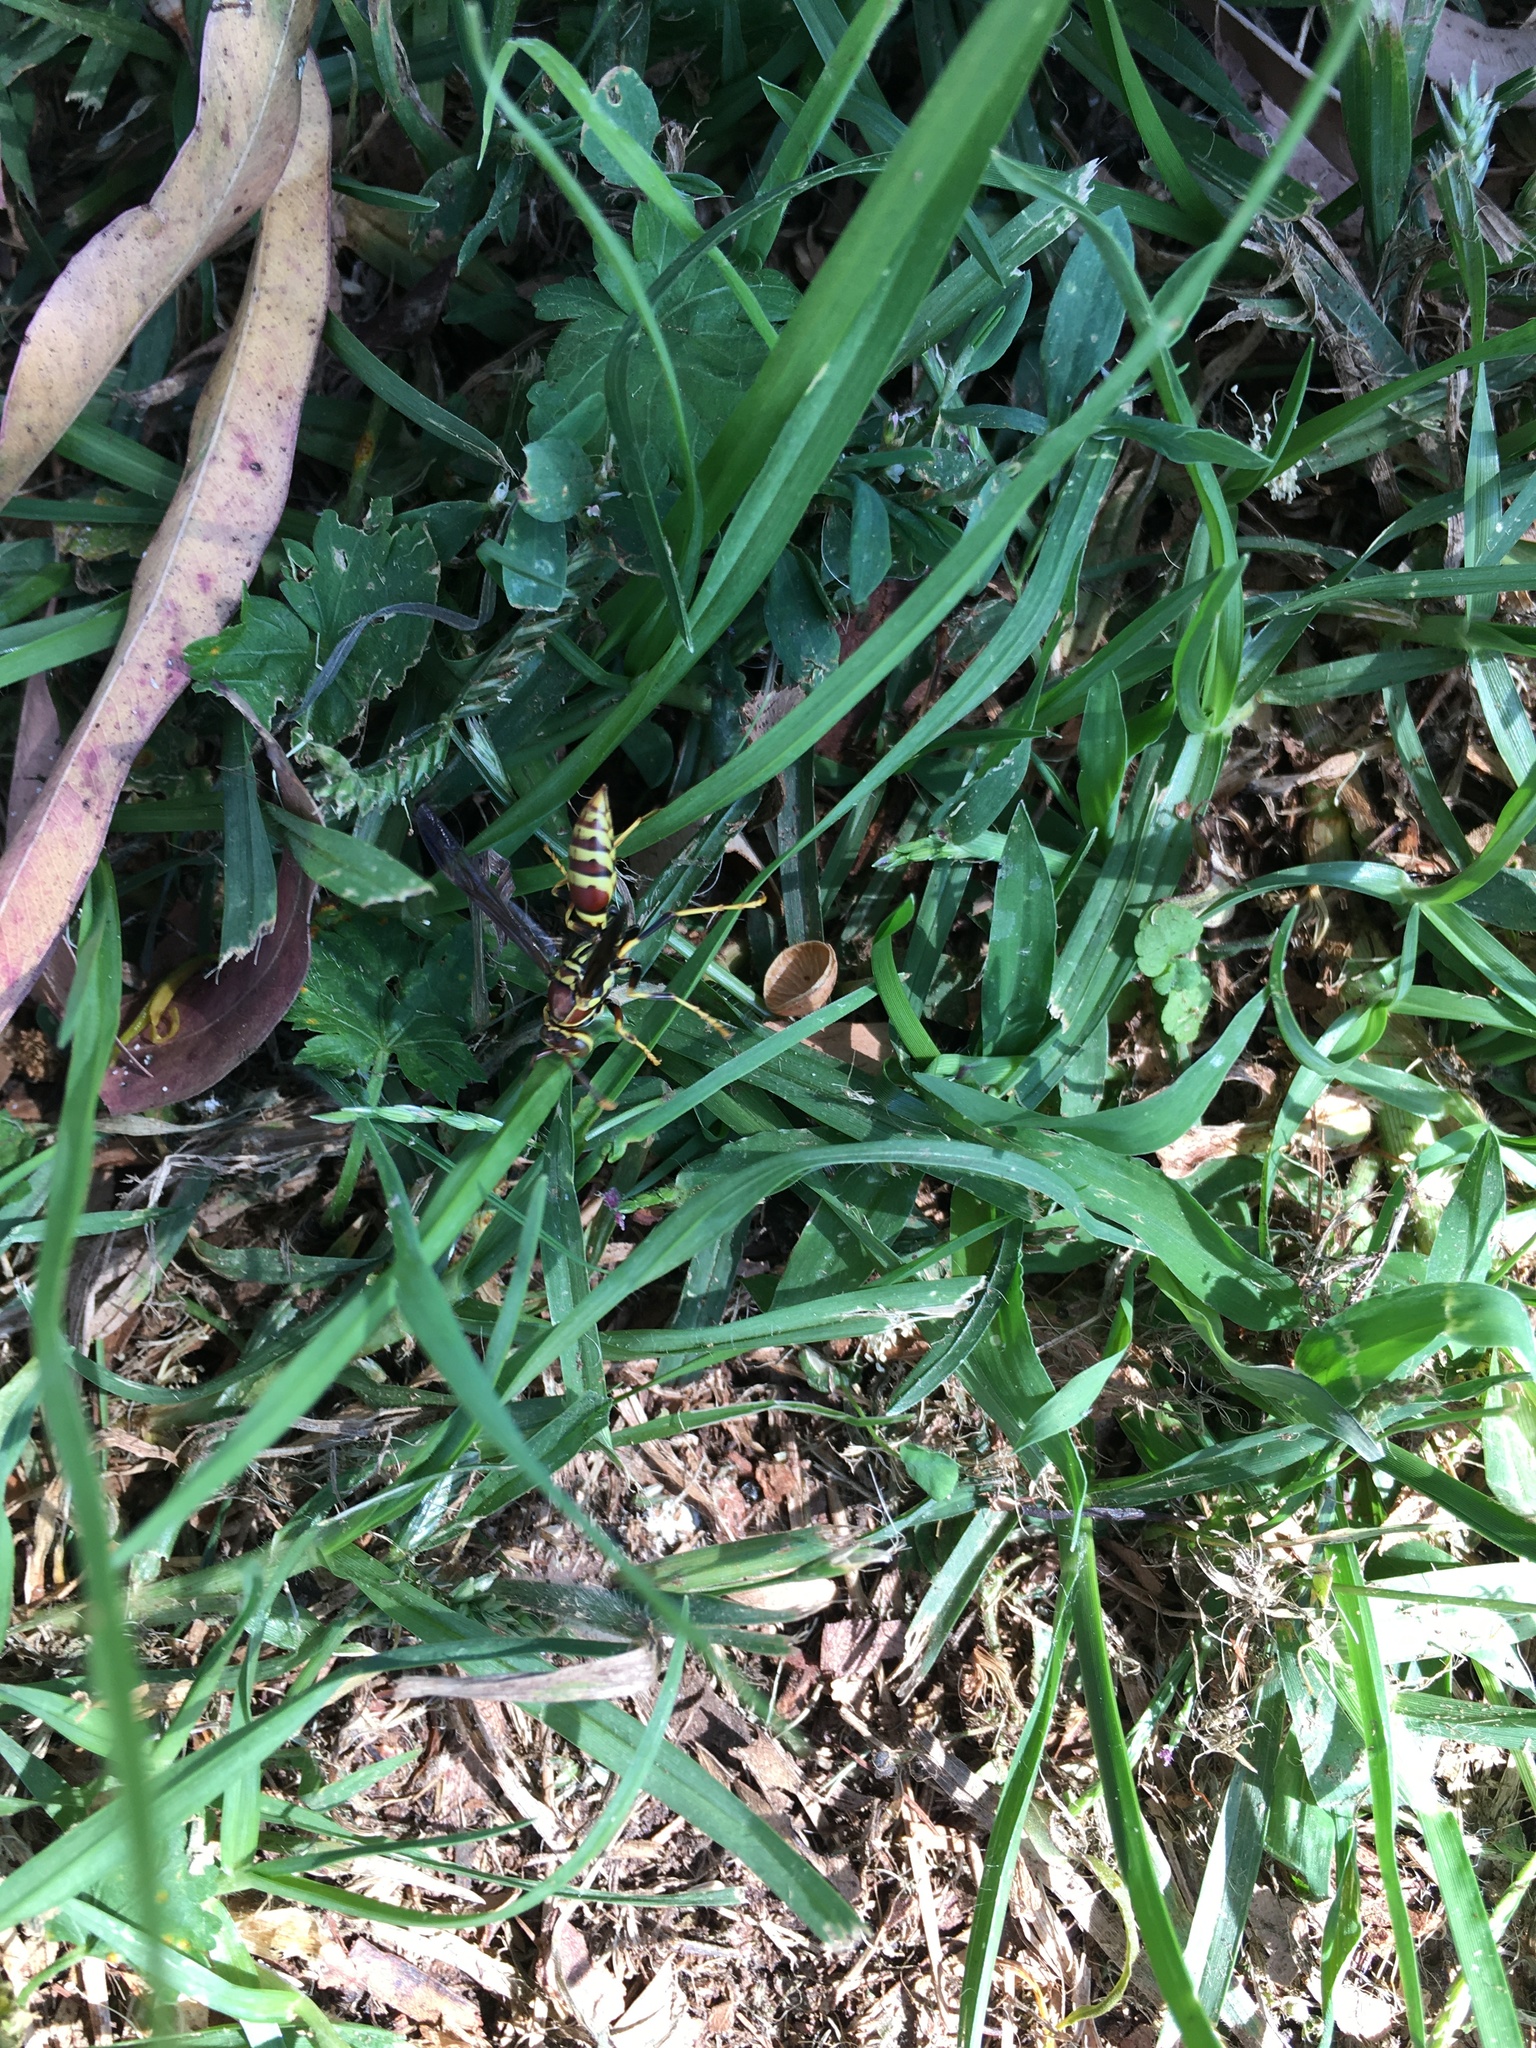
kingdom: Animalia
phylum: Arthropoda
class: Insecta
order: Hymenoptera
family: Eumenidae
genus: Polistes
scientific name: Polistes exclamans
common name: Paper wasp
